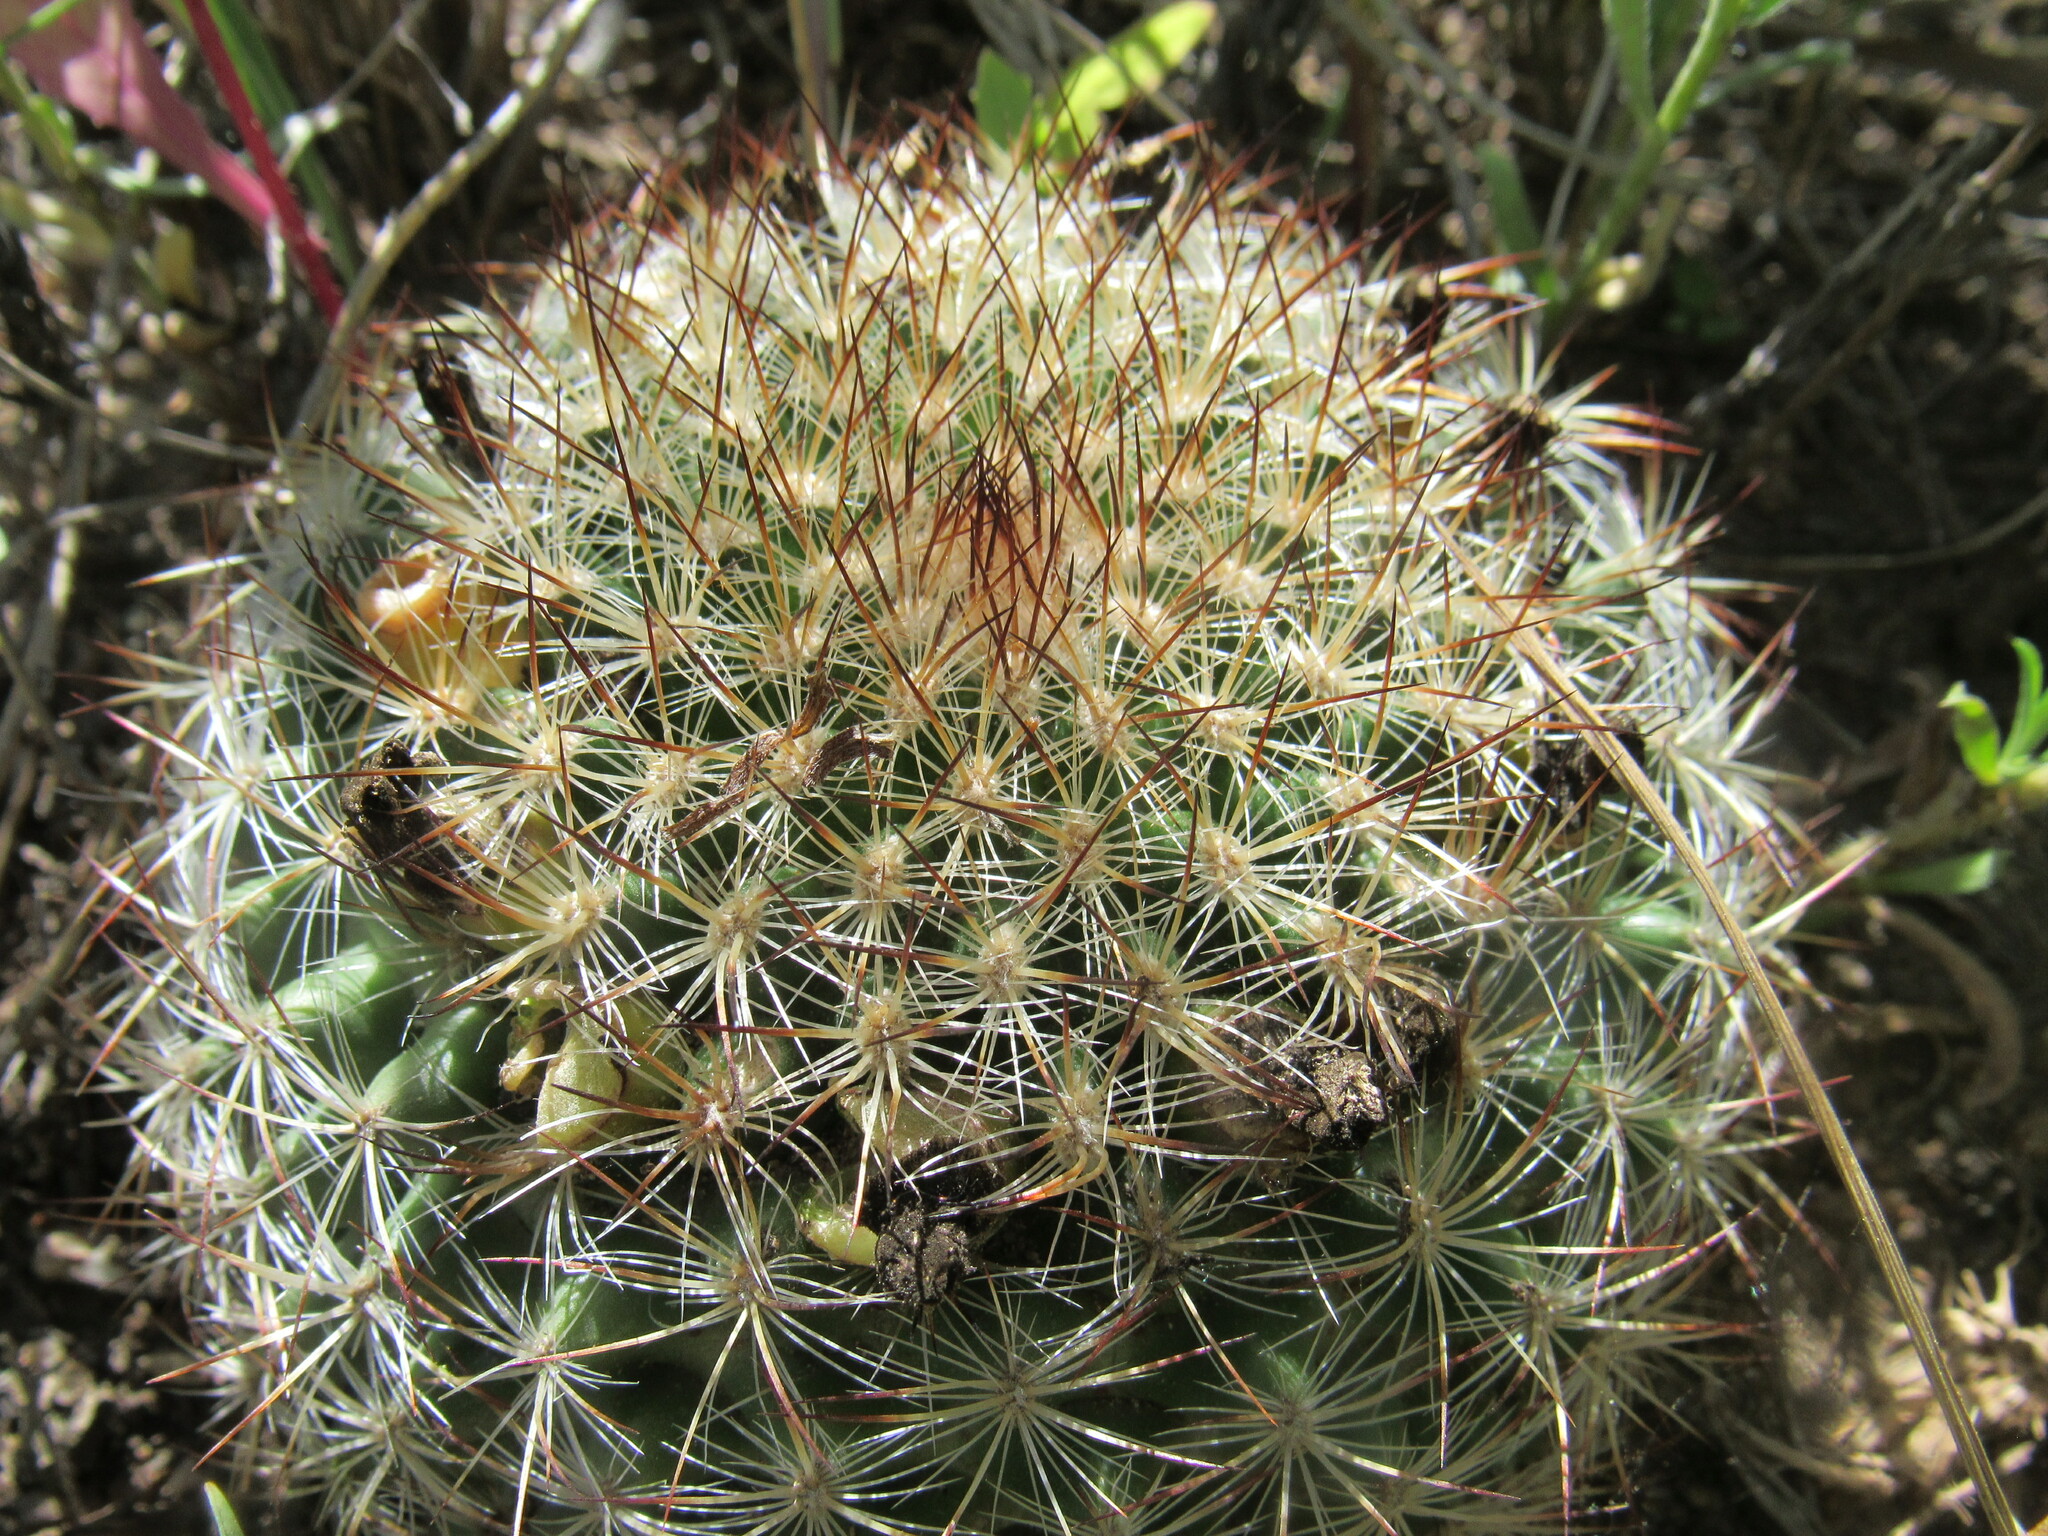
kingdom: Plantae
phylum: Tracheophyta
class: Magnoliopsida
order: Caryophyllales
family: Cactaceae
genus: Pediocactus
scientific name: Pediocactus simpsonii
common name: Simpson's hedgehog cactus
